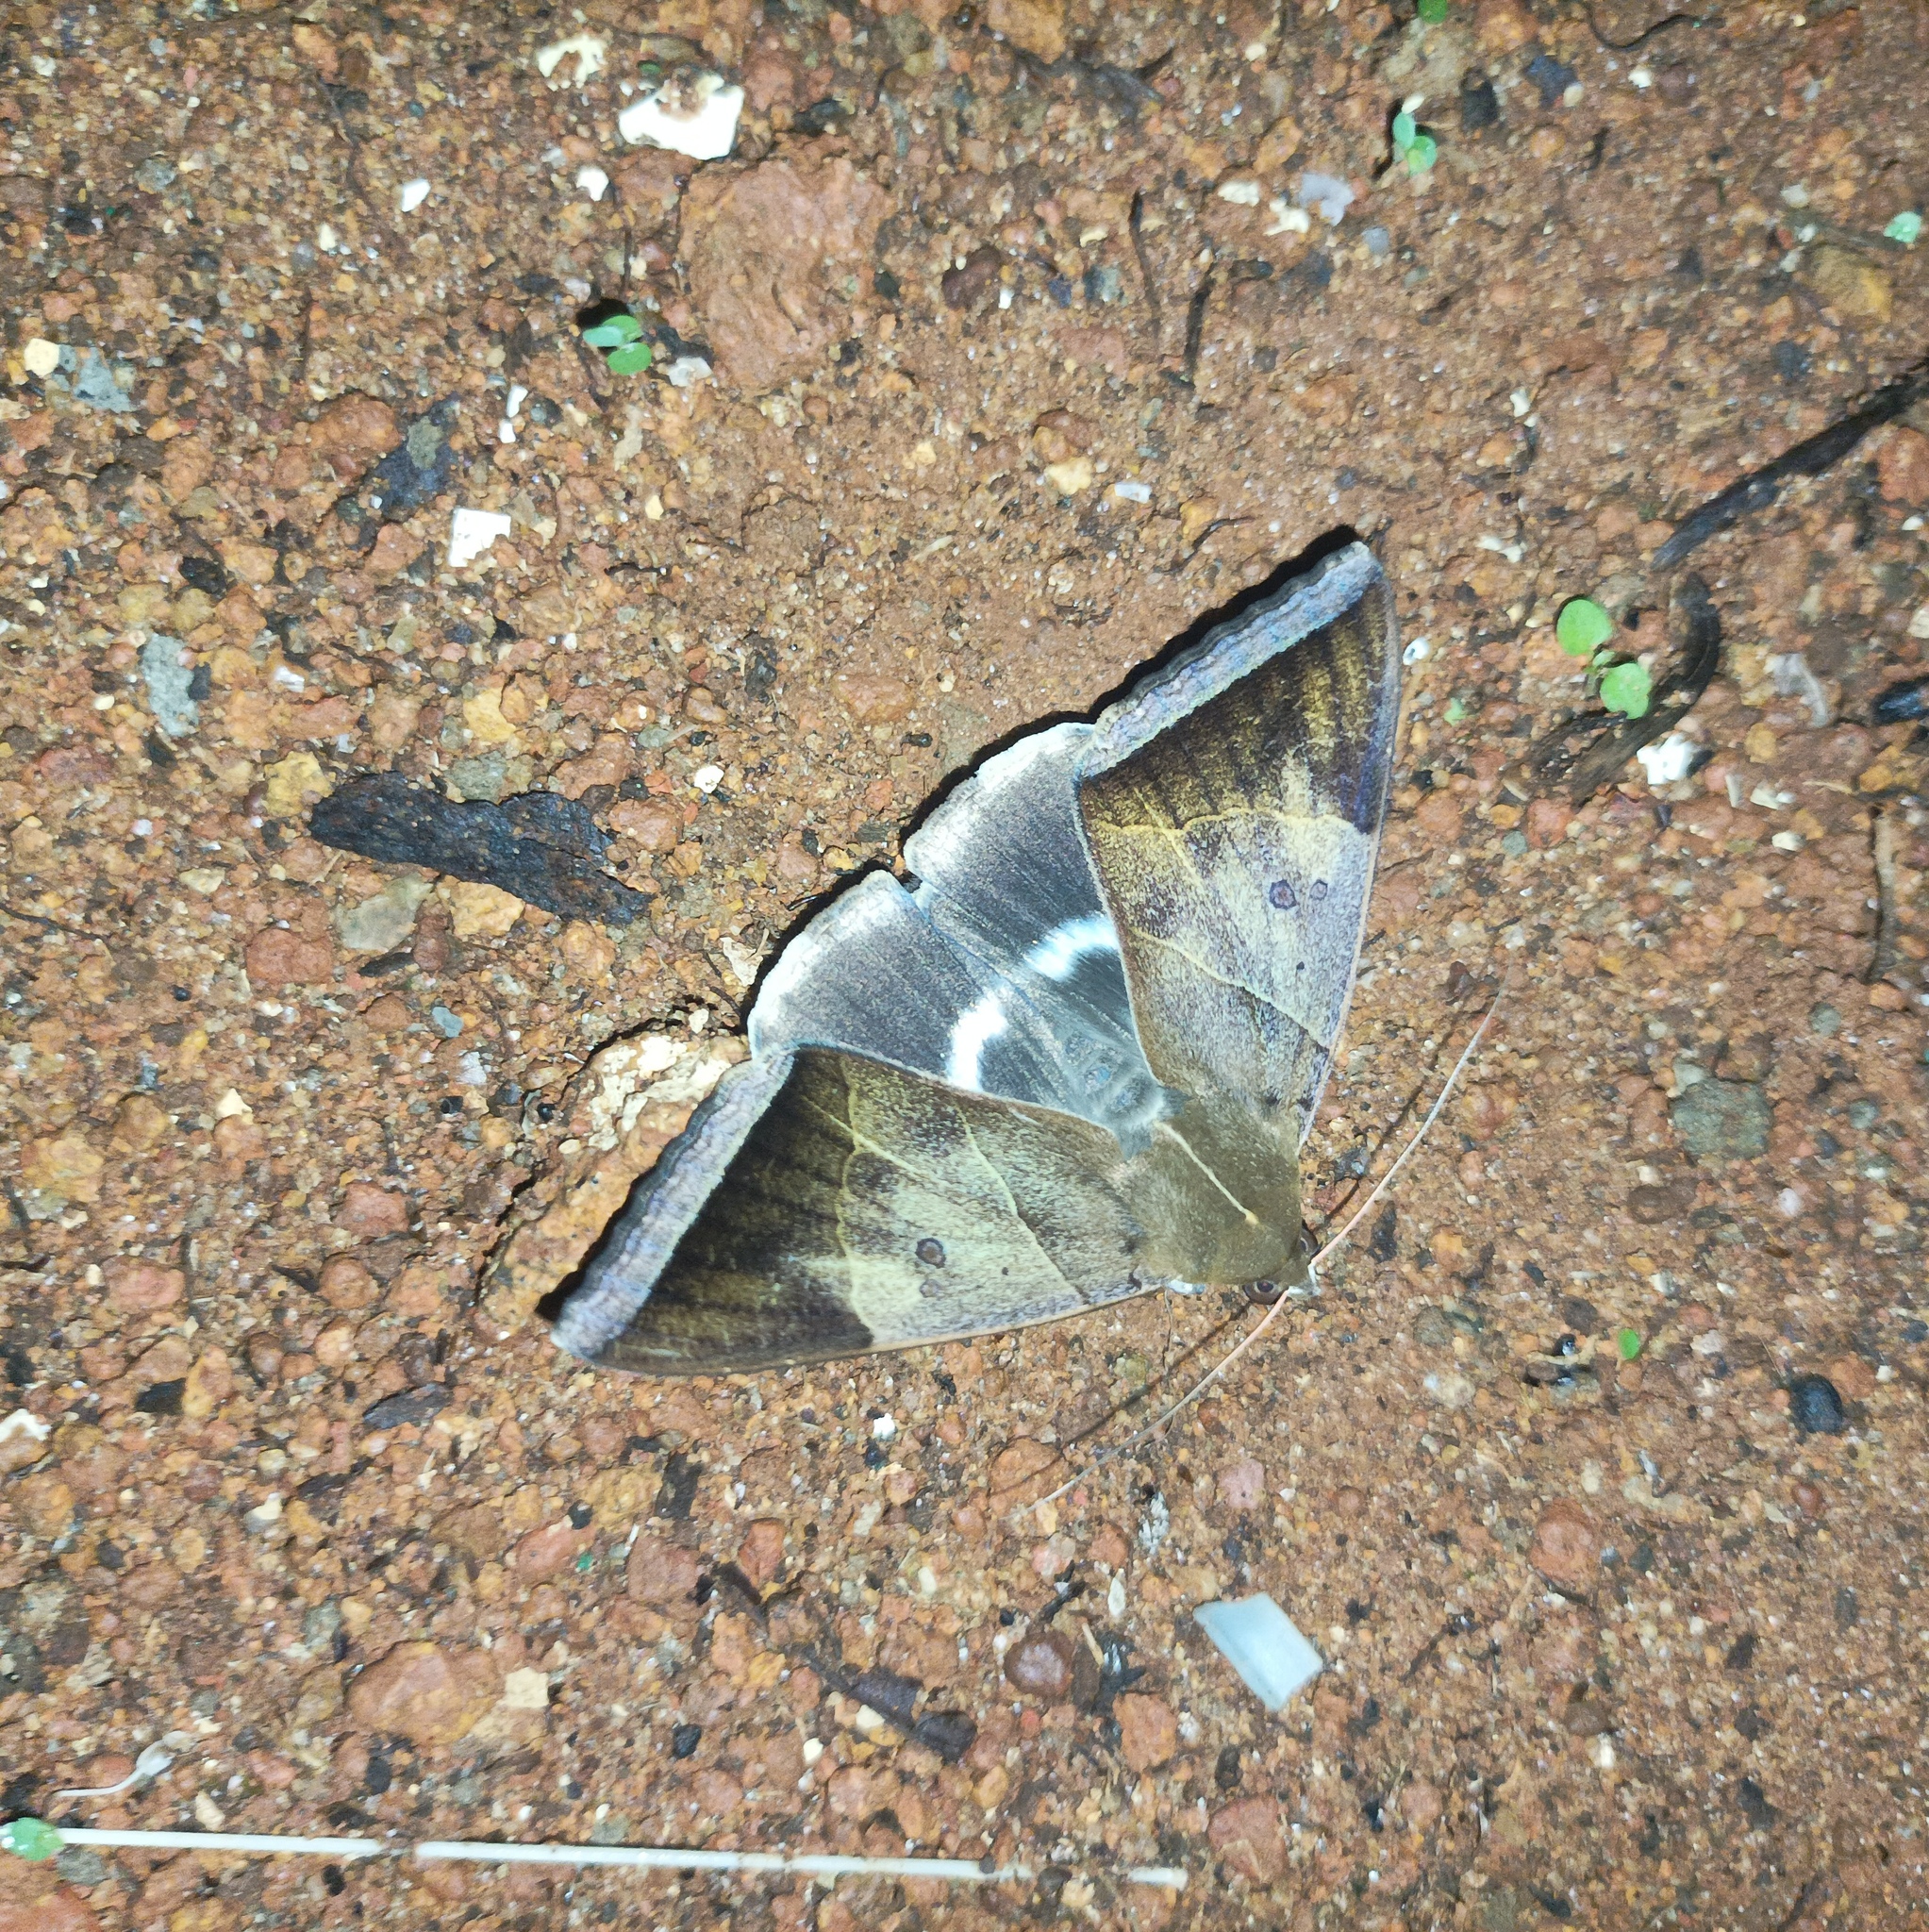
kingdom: Animalia
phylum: Arthropoda
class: Insecta
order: Lepidoptera
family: Erebidae
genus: Artena
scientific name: Artena dotata
